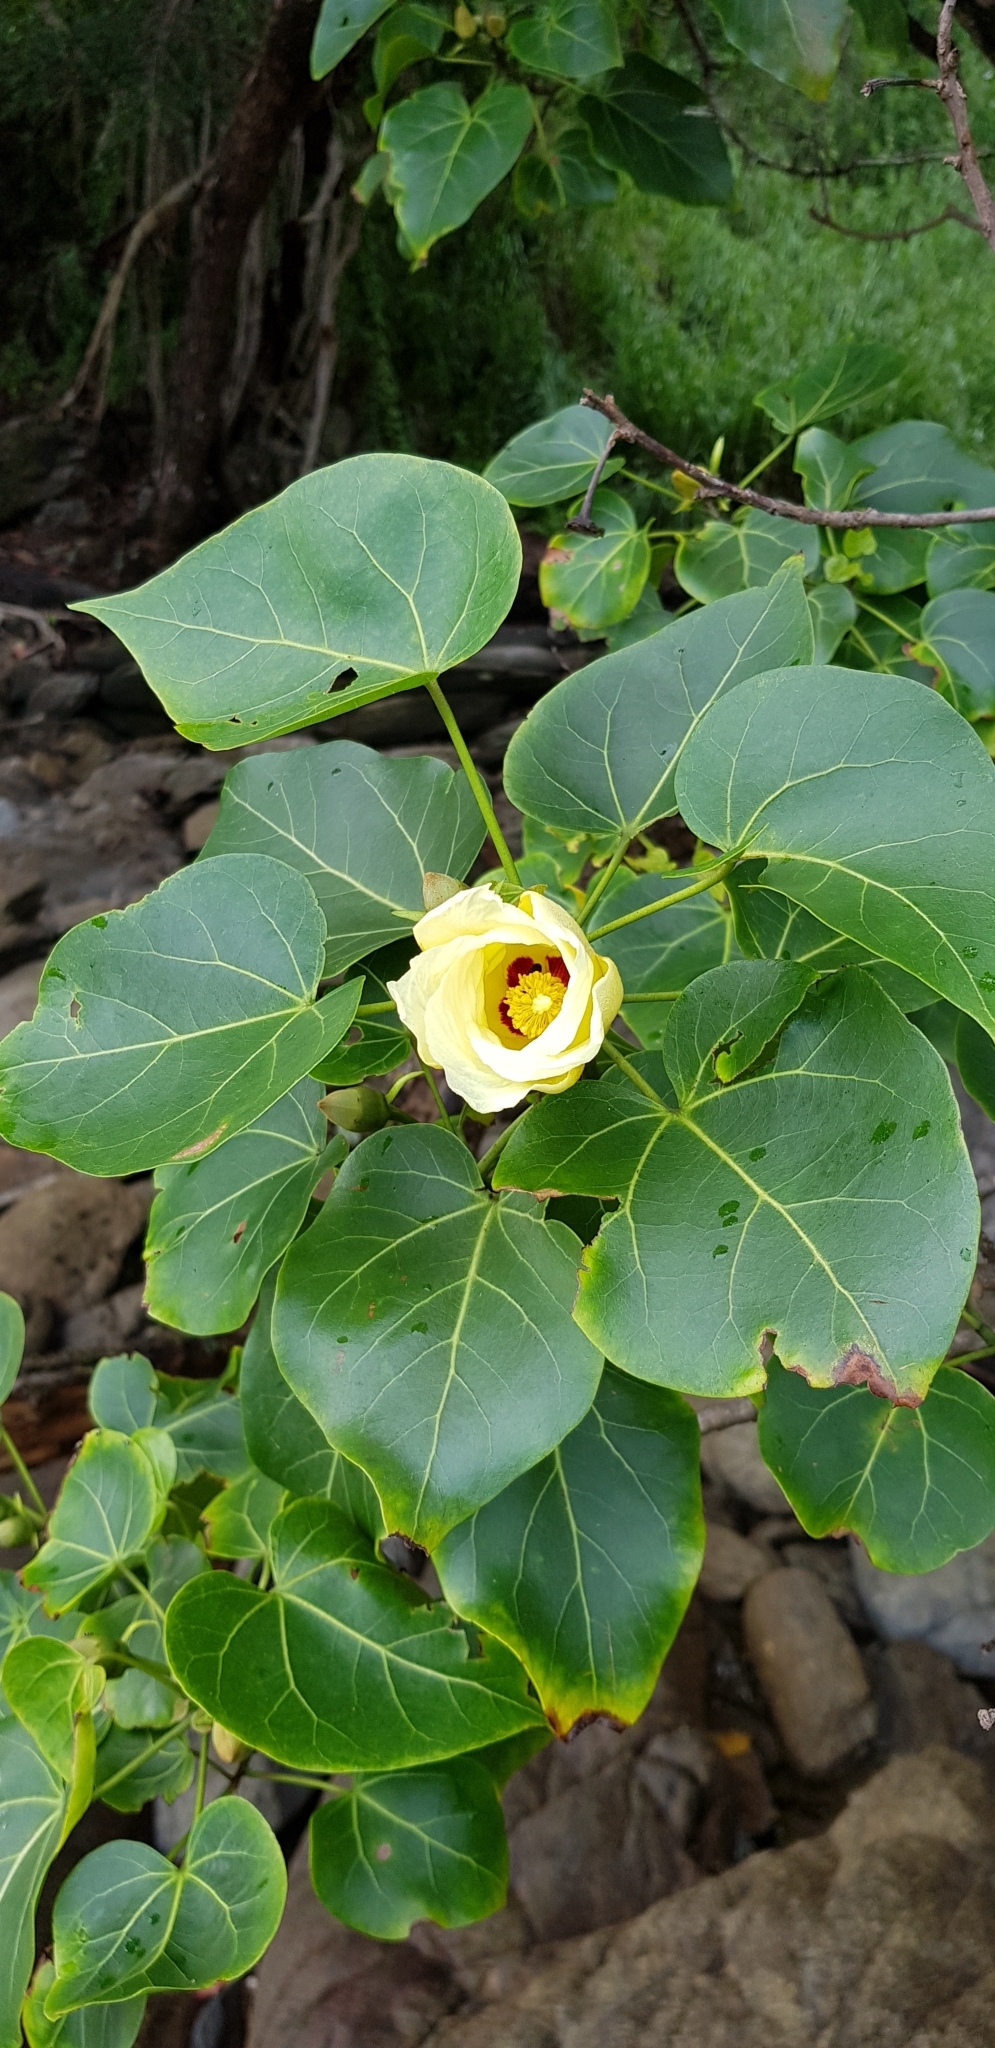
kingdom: Plantae
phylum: Tracheophyta
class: Magnoliopsida
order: Malvales
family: Malvaceae
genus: Thespesia
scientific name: Thespesia populnea
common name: Seaside mahoe
